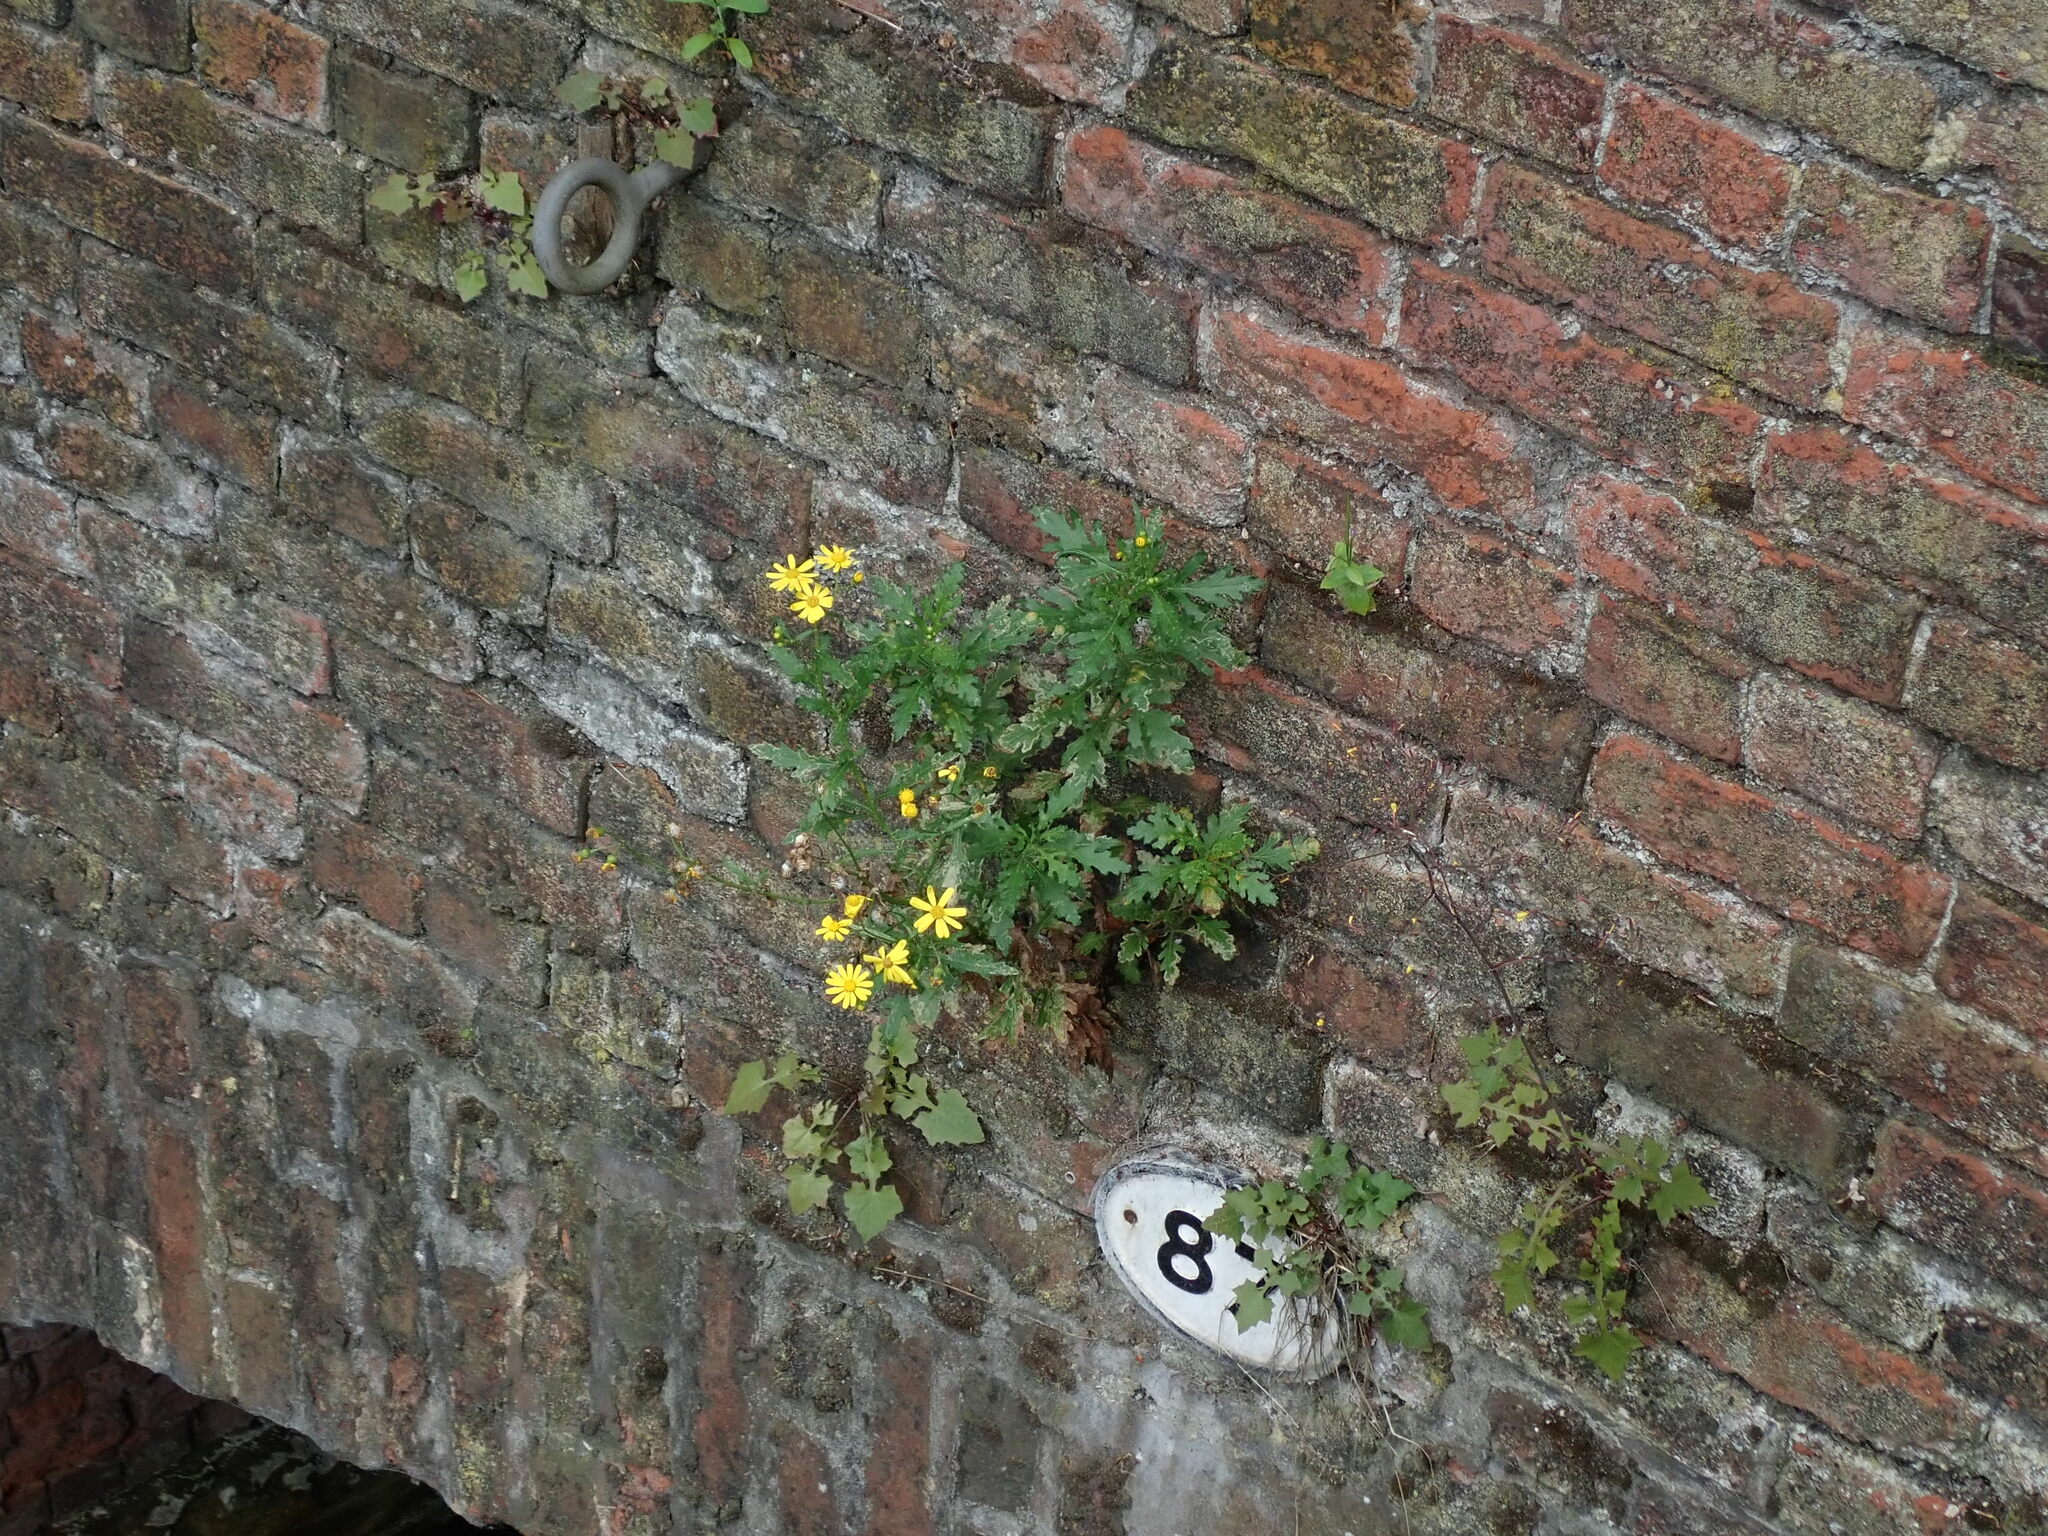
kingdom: Plantae
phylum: Tracheophyta
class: Magnoliopsida
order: Asterales
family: Asteraceae
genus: Senecio
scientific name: Senecio squalidus
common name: Oxford ragwort
